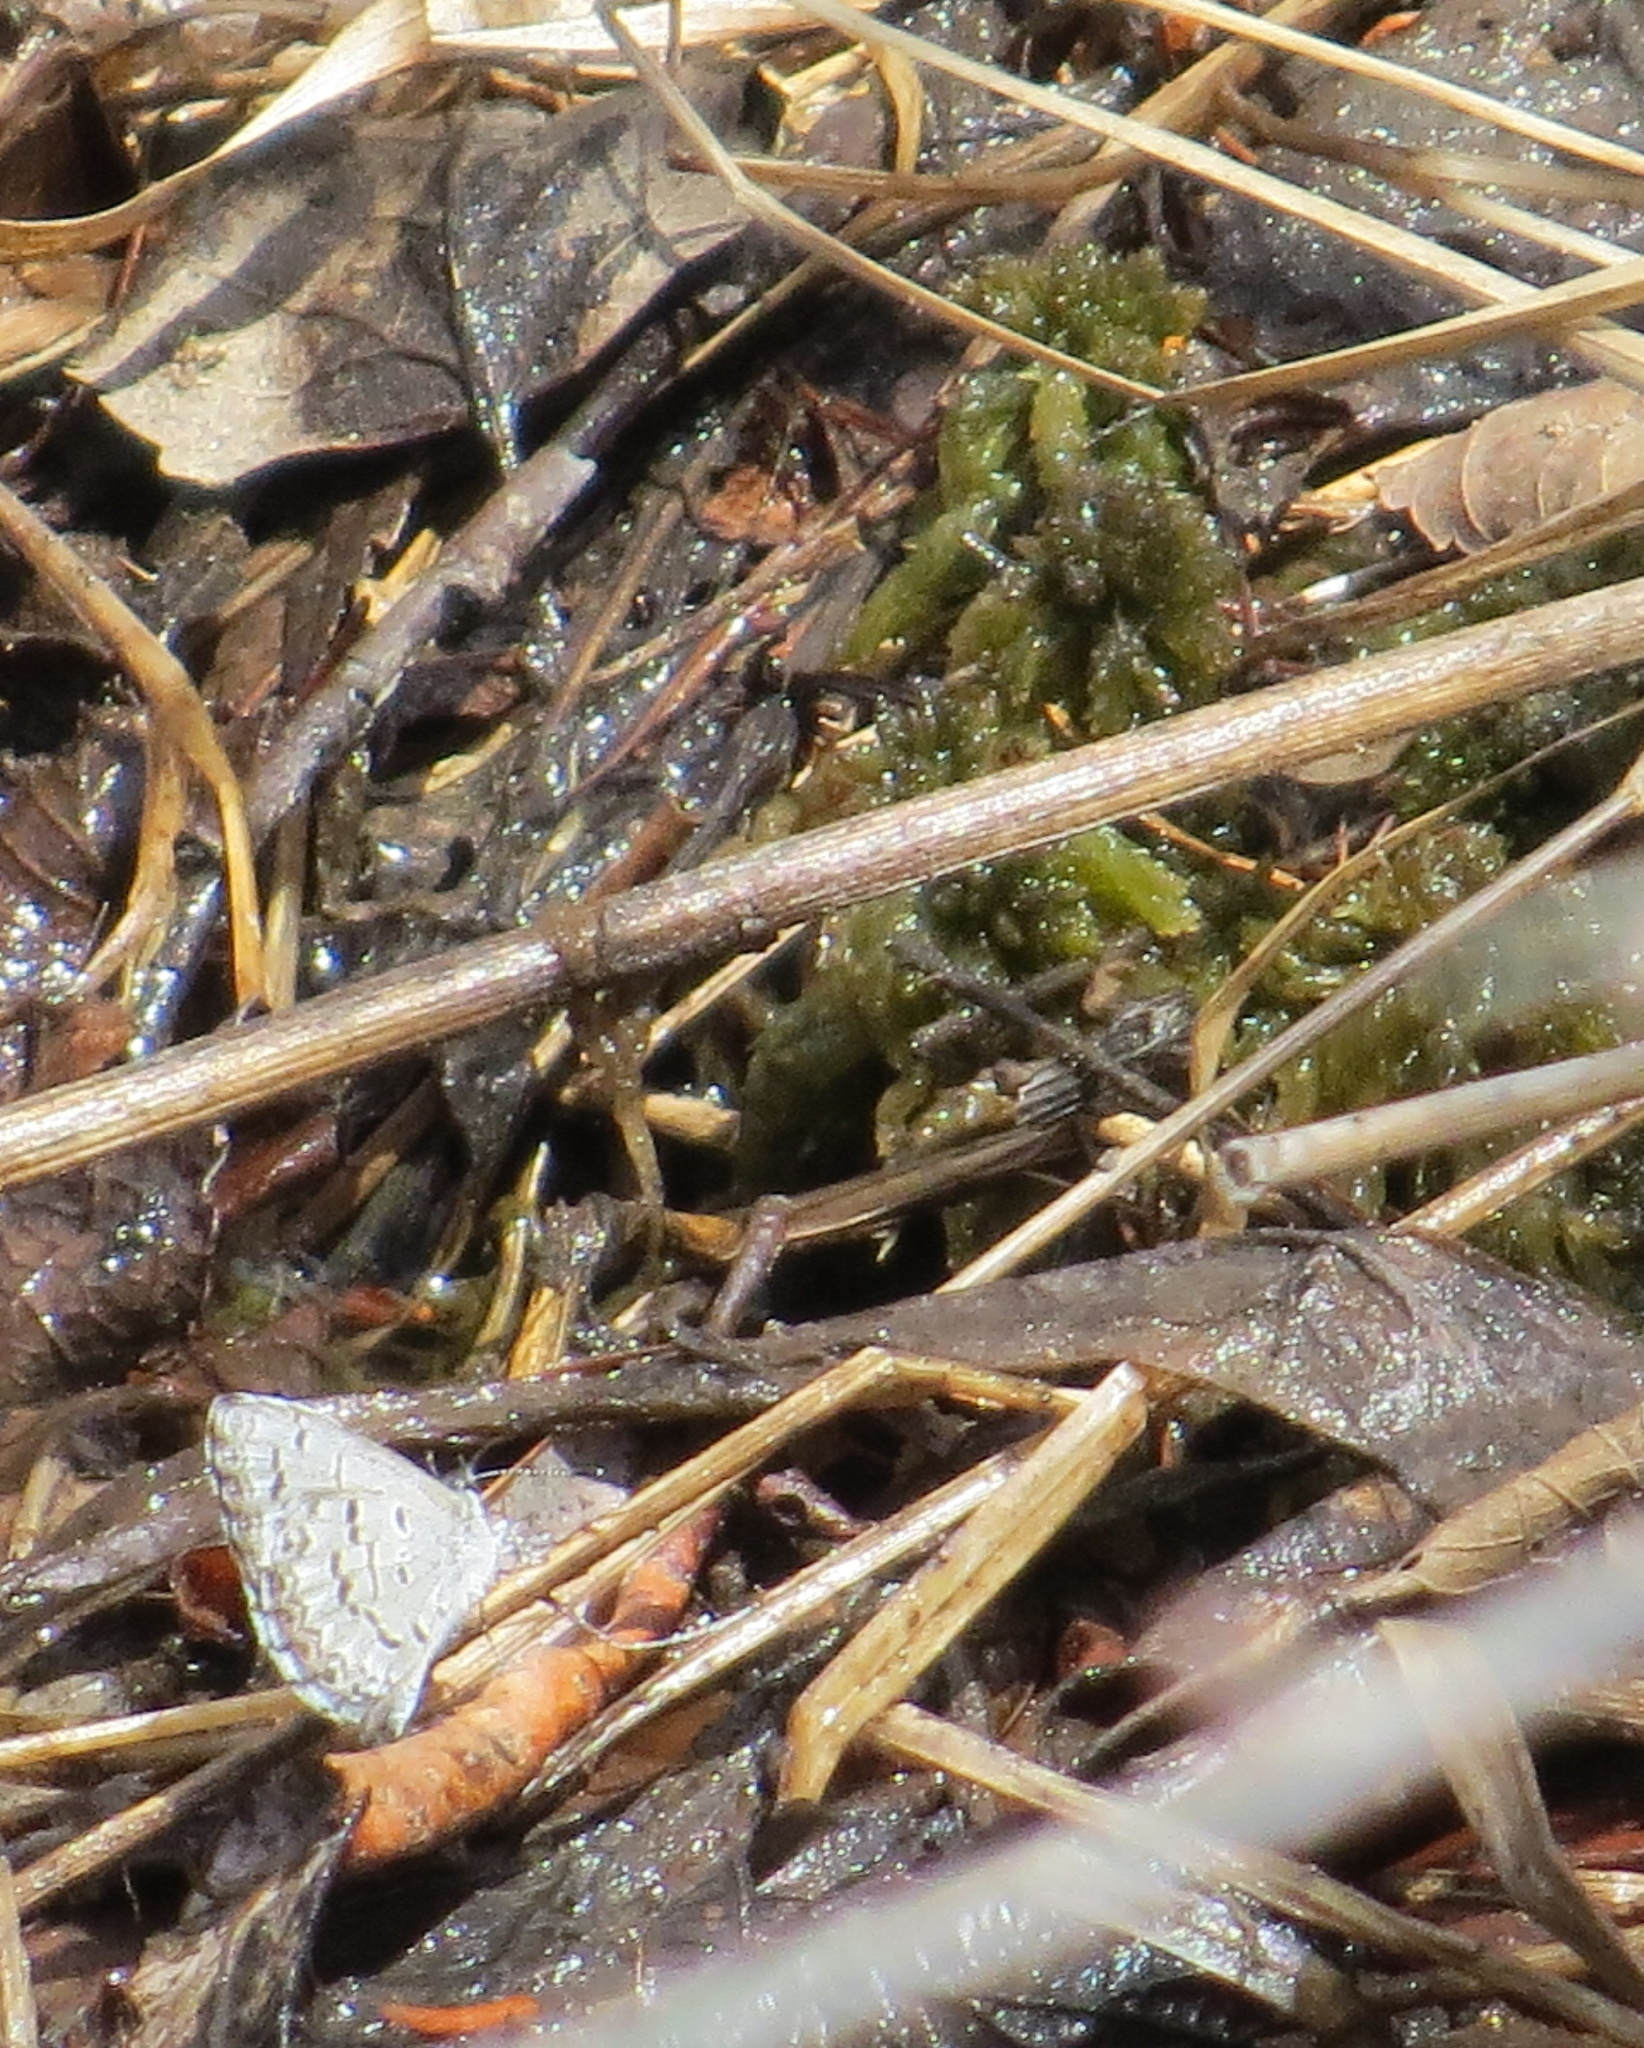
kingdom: Animalia
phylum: Arthropoda
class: Insecta
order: Lepidoptera
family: Lycaenidae
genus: Celastrina
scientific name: Celastrina lucia
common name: Lucia azure
